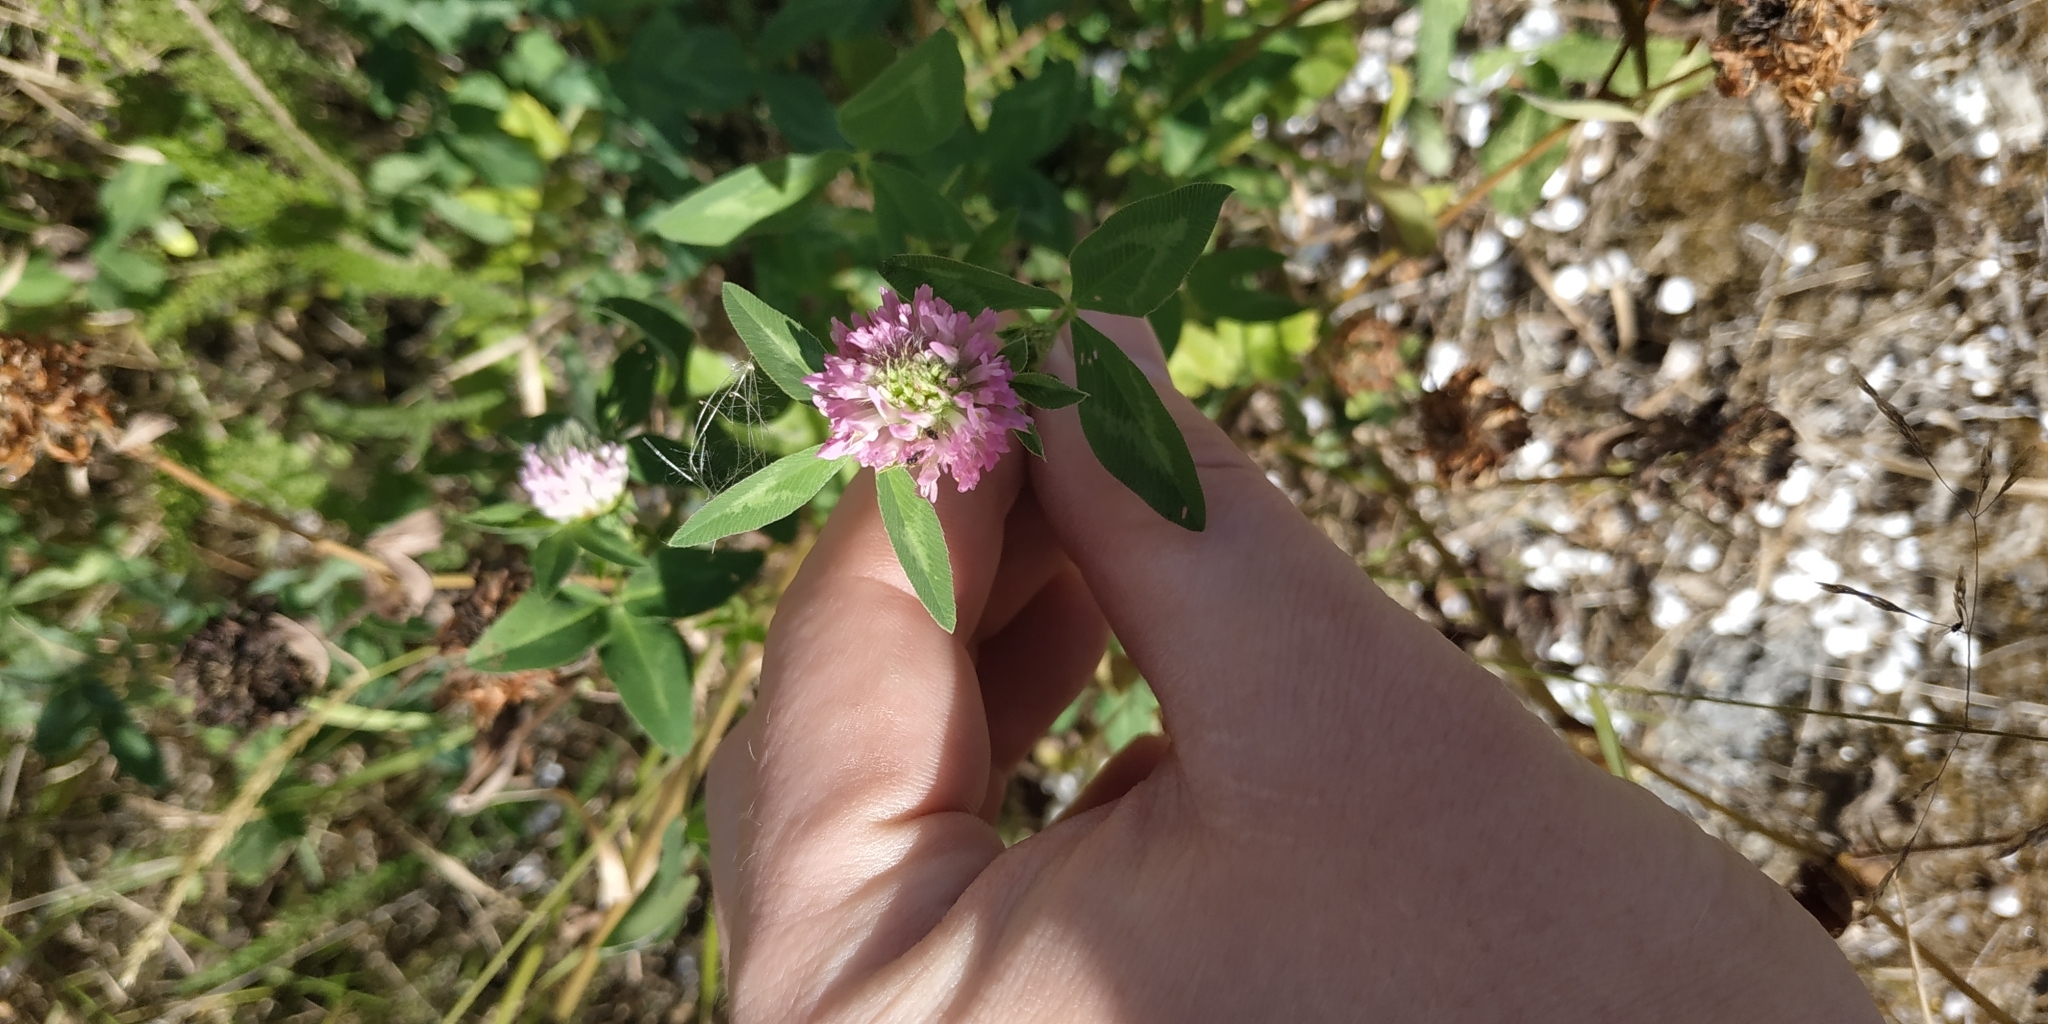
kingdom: Plantae
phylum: Tracheophyta
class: Magnoliopsida
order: Fabales
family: Fabaceae
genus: Trifolium
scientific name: Trifolium pratense
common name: Red clover
